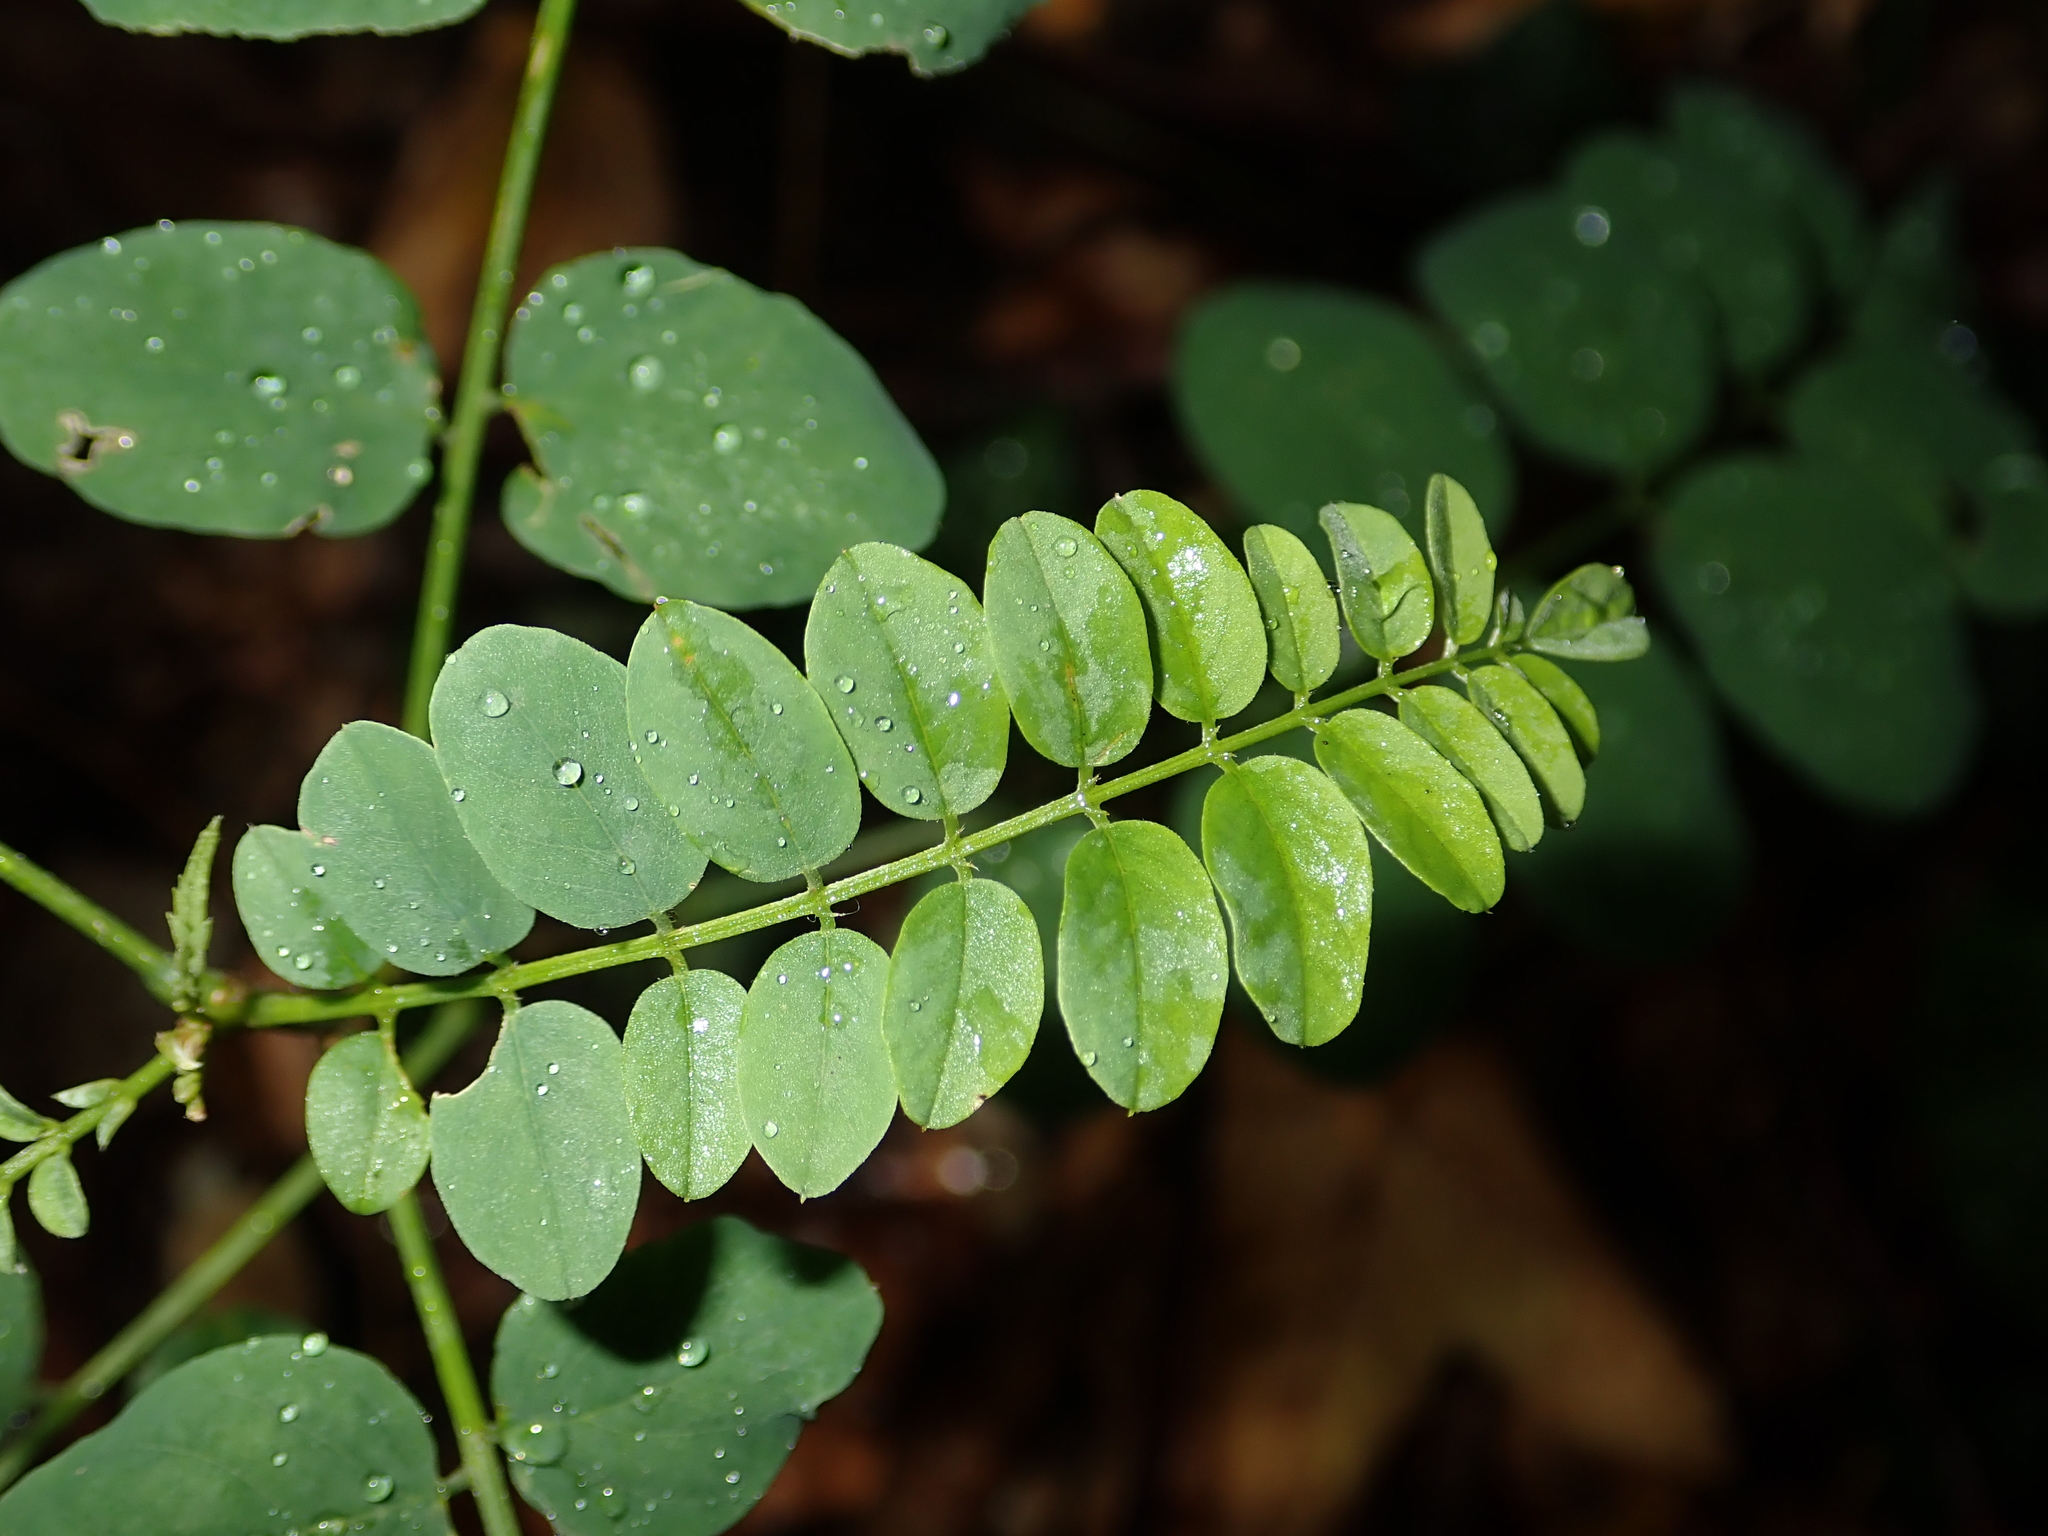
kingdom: Plantae
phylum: Tracheophyta
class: Magnoliopsida
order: Fabales
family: Fabaceae
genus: Robinia
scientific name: Robinia pseudoacacia
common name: Black locust
